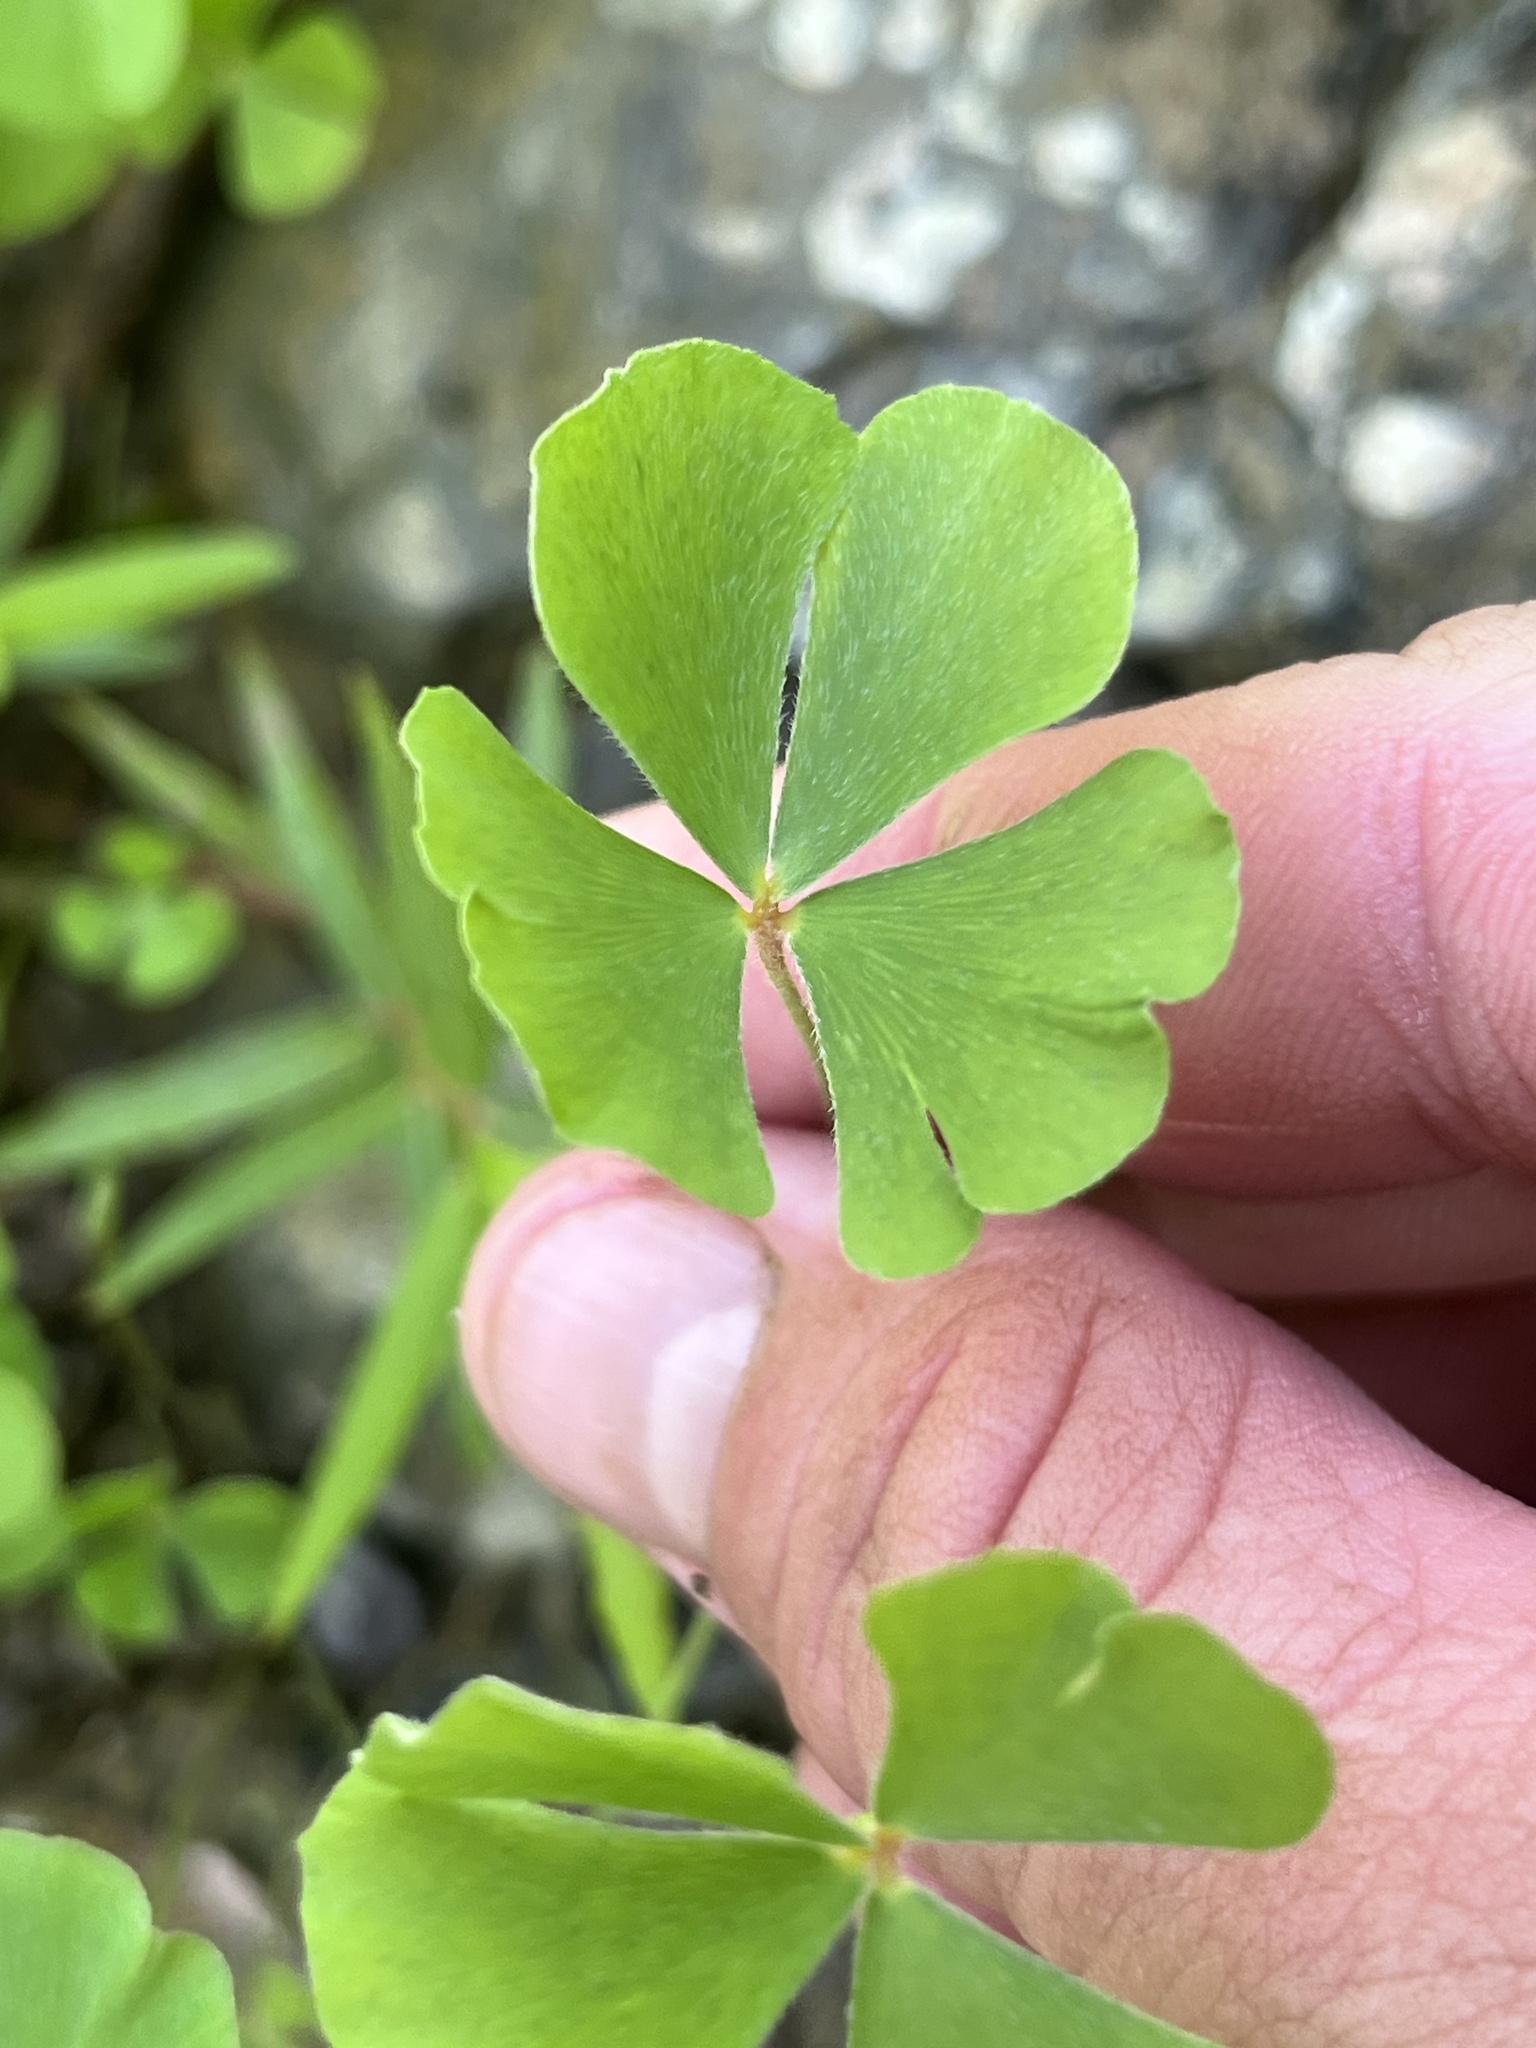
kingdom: Plantae
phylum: Tracheophyta
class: Polypodiopsida
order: Salviniales
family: Marsileaceae
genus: Marsilea
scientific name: Marsilea vestita
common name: Hooked-pepperwort
